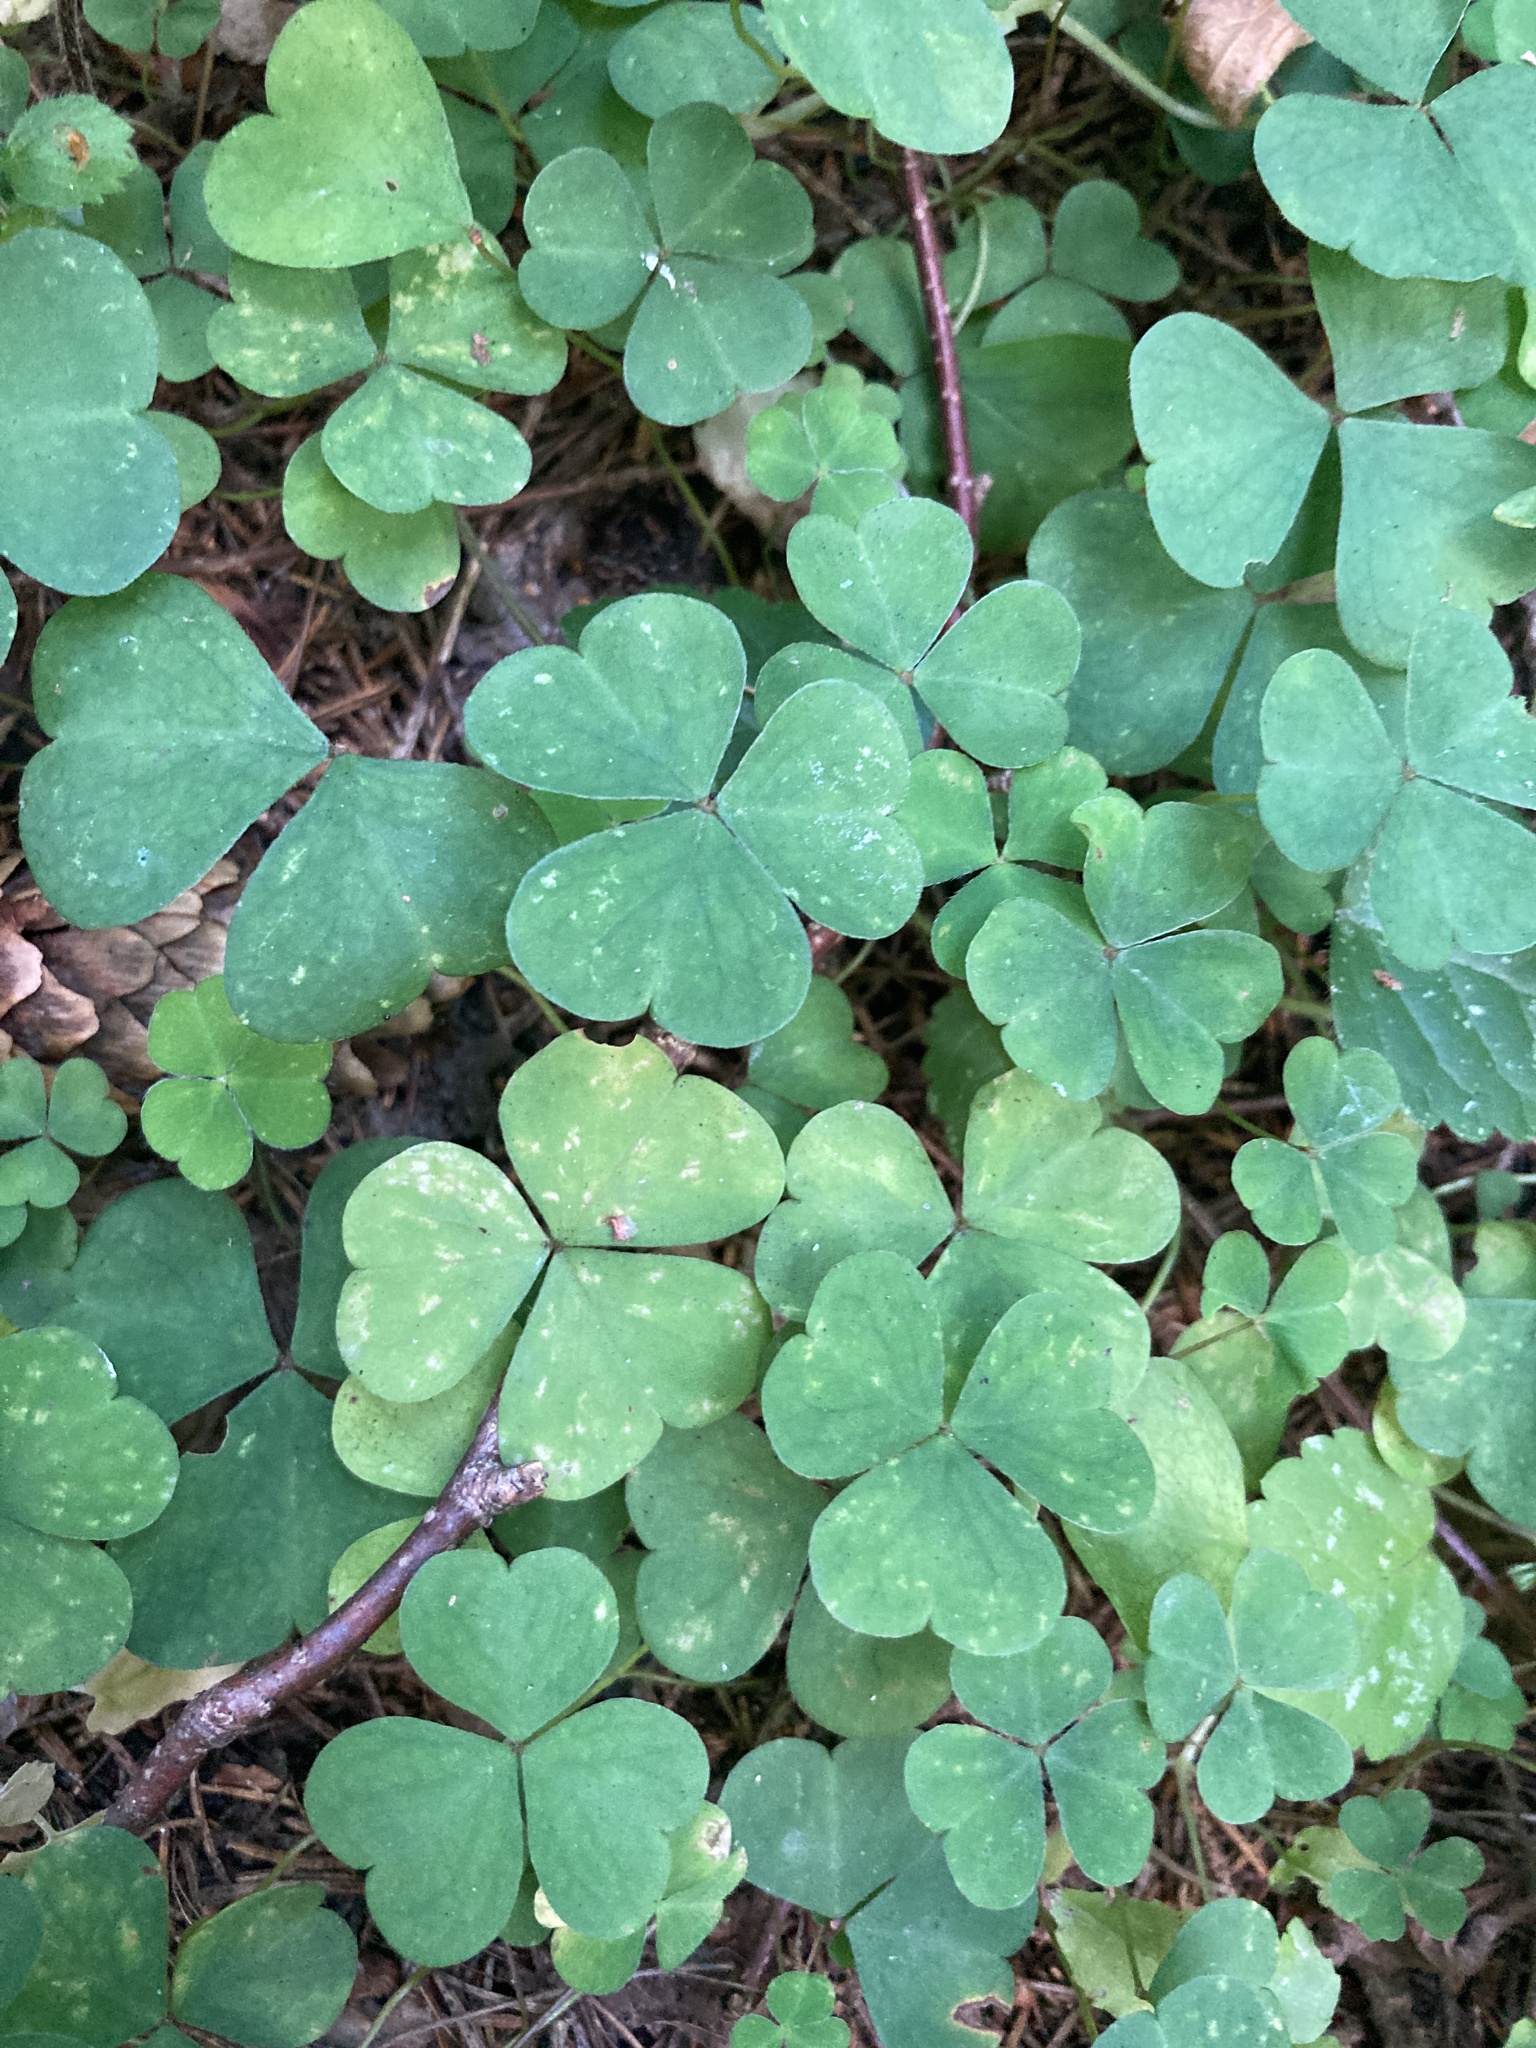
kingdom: Plantae
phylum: Tracheophyta
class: Magnoliopsida
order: Oxalidales
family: Oxalidaceae
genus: Oxalis
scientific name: Oxalis acetosella
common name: Wood-sorrel
